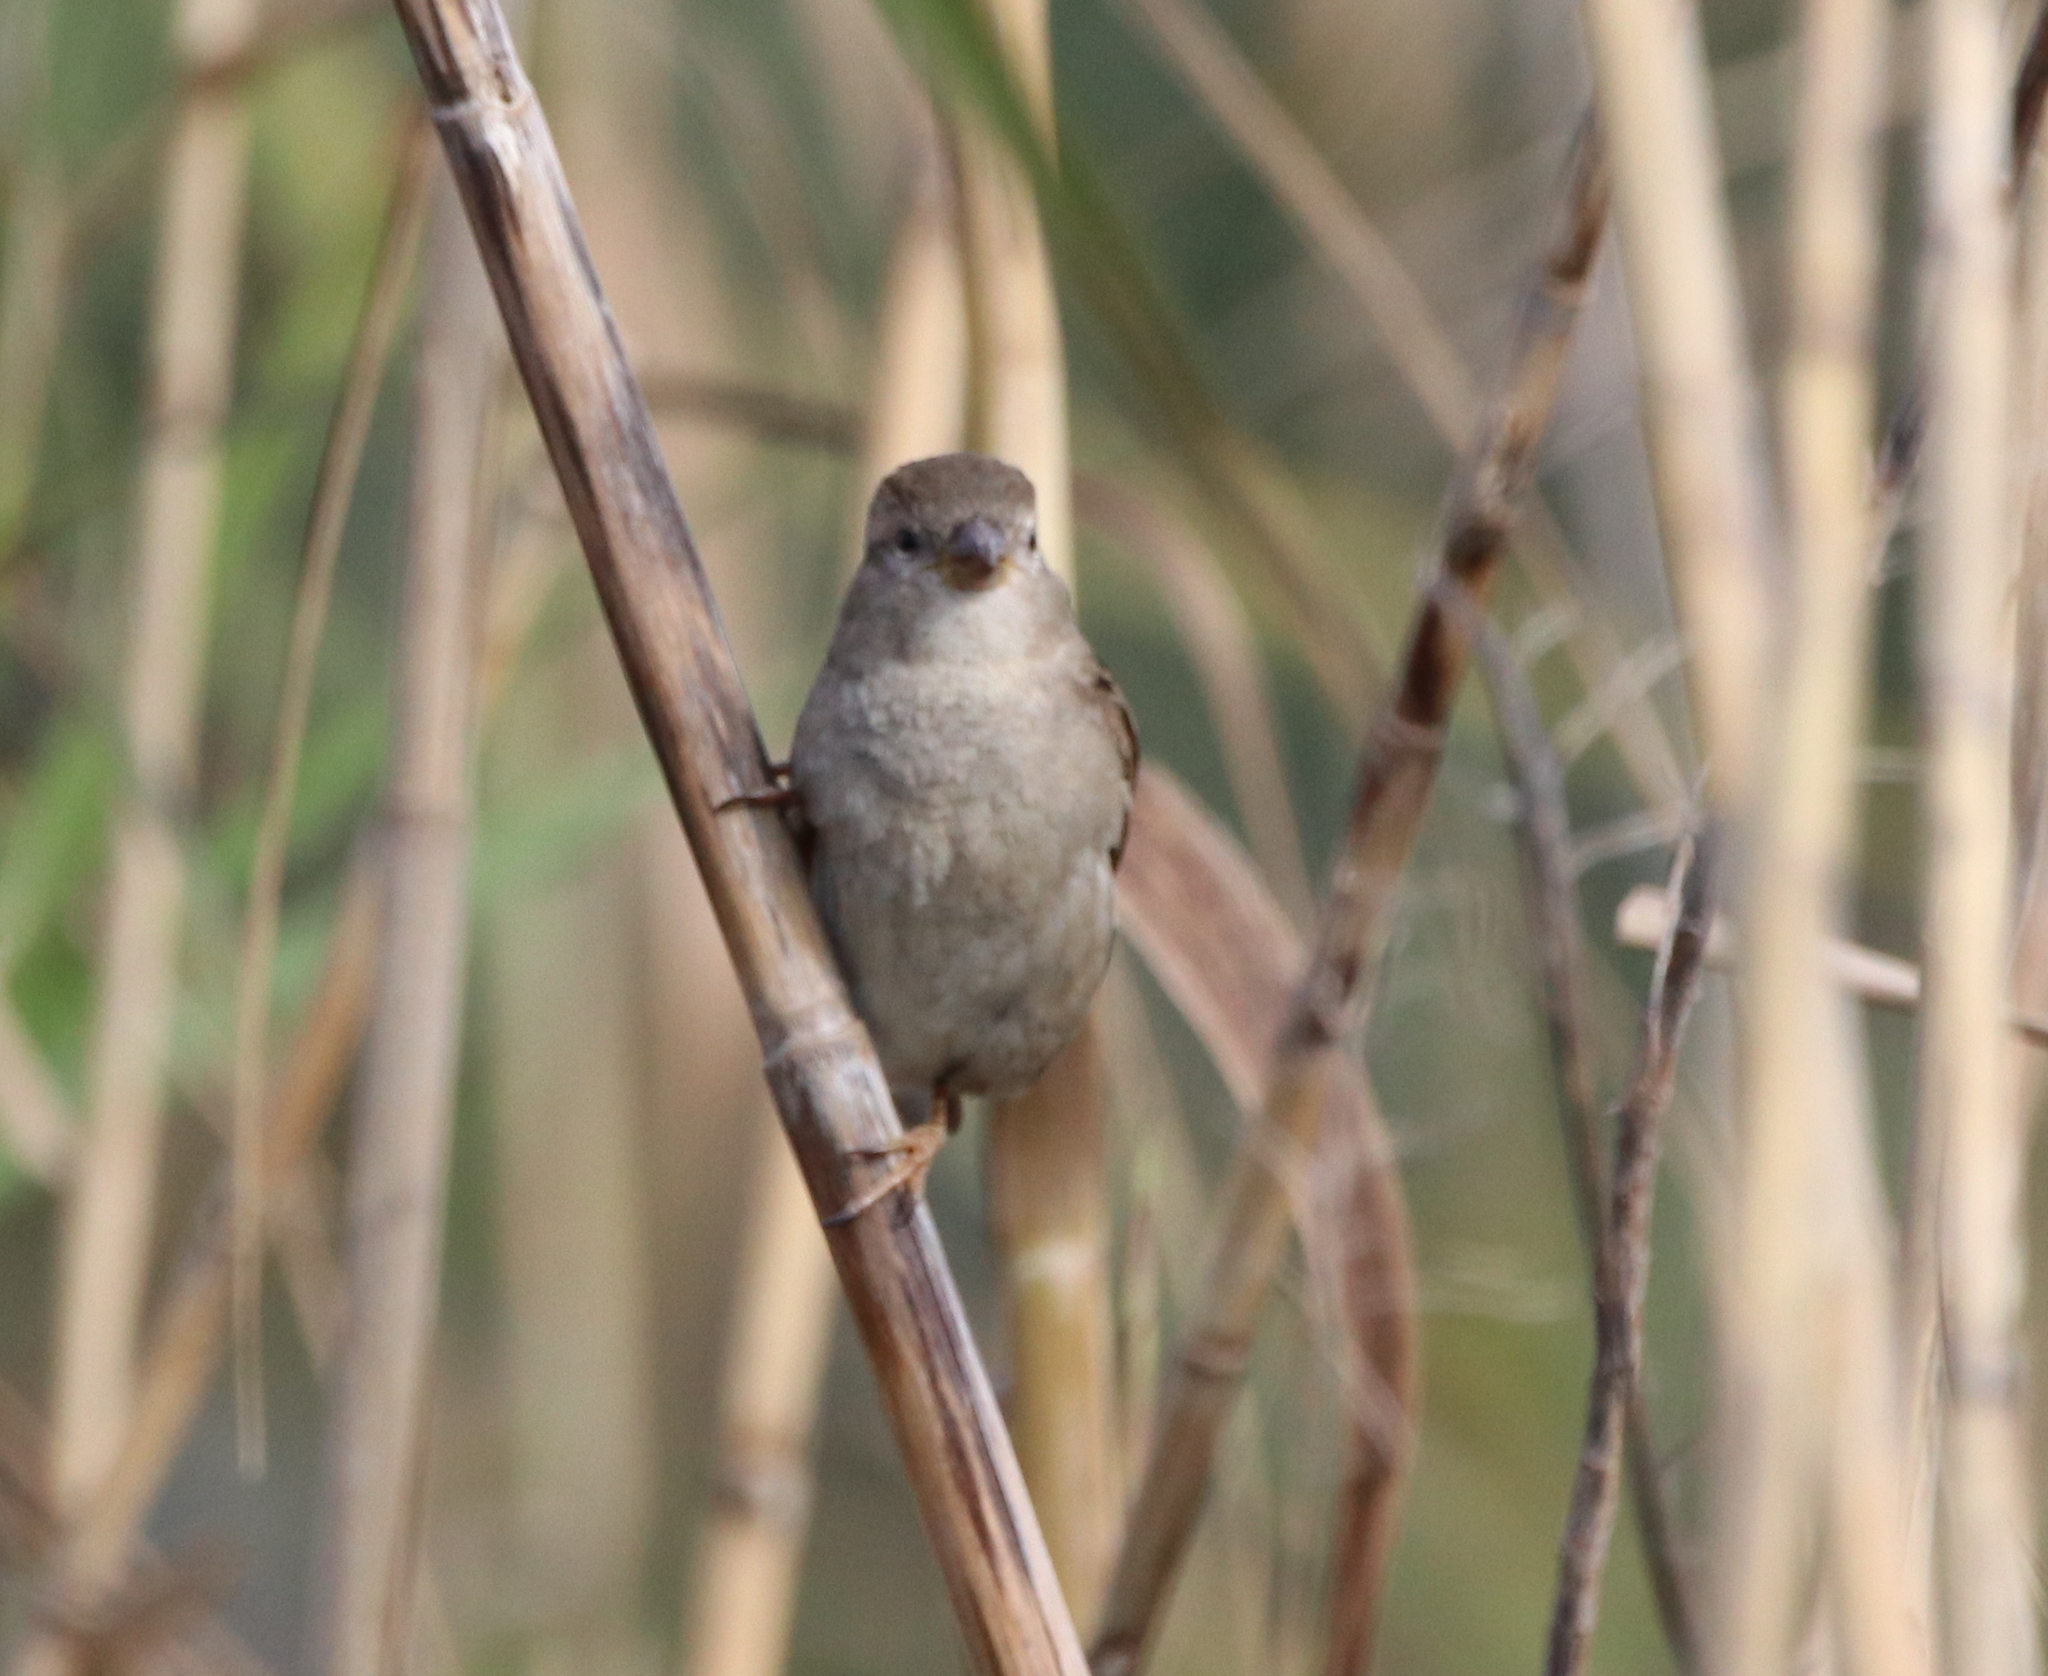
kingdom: Animalia
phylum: Chordata
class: Aves
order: Passeriformes
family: Passeridae
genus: Passer
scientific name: Passer domesticus
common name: House sparrow
